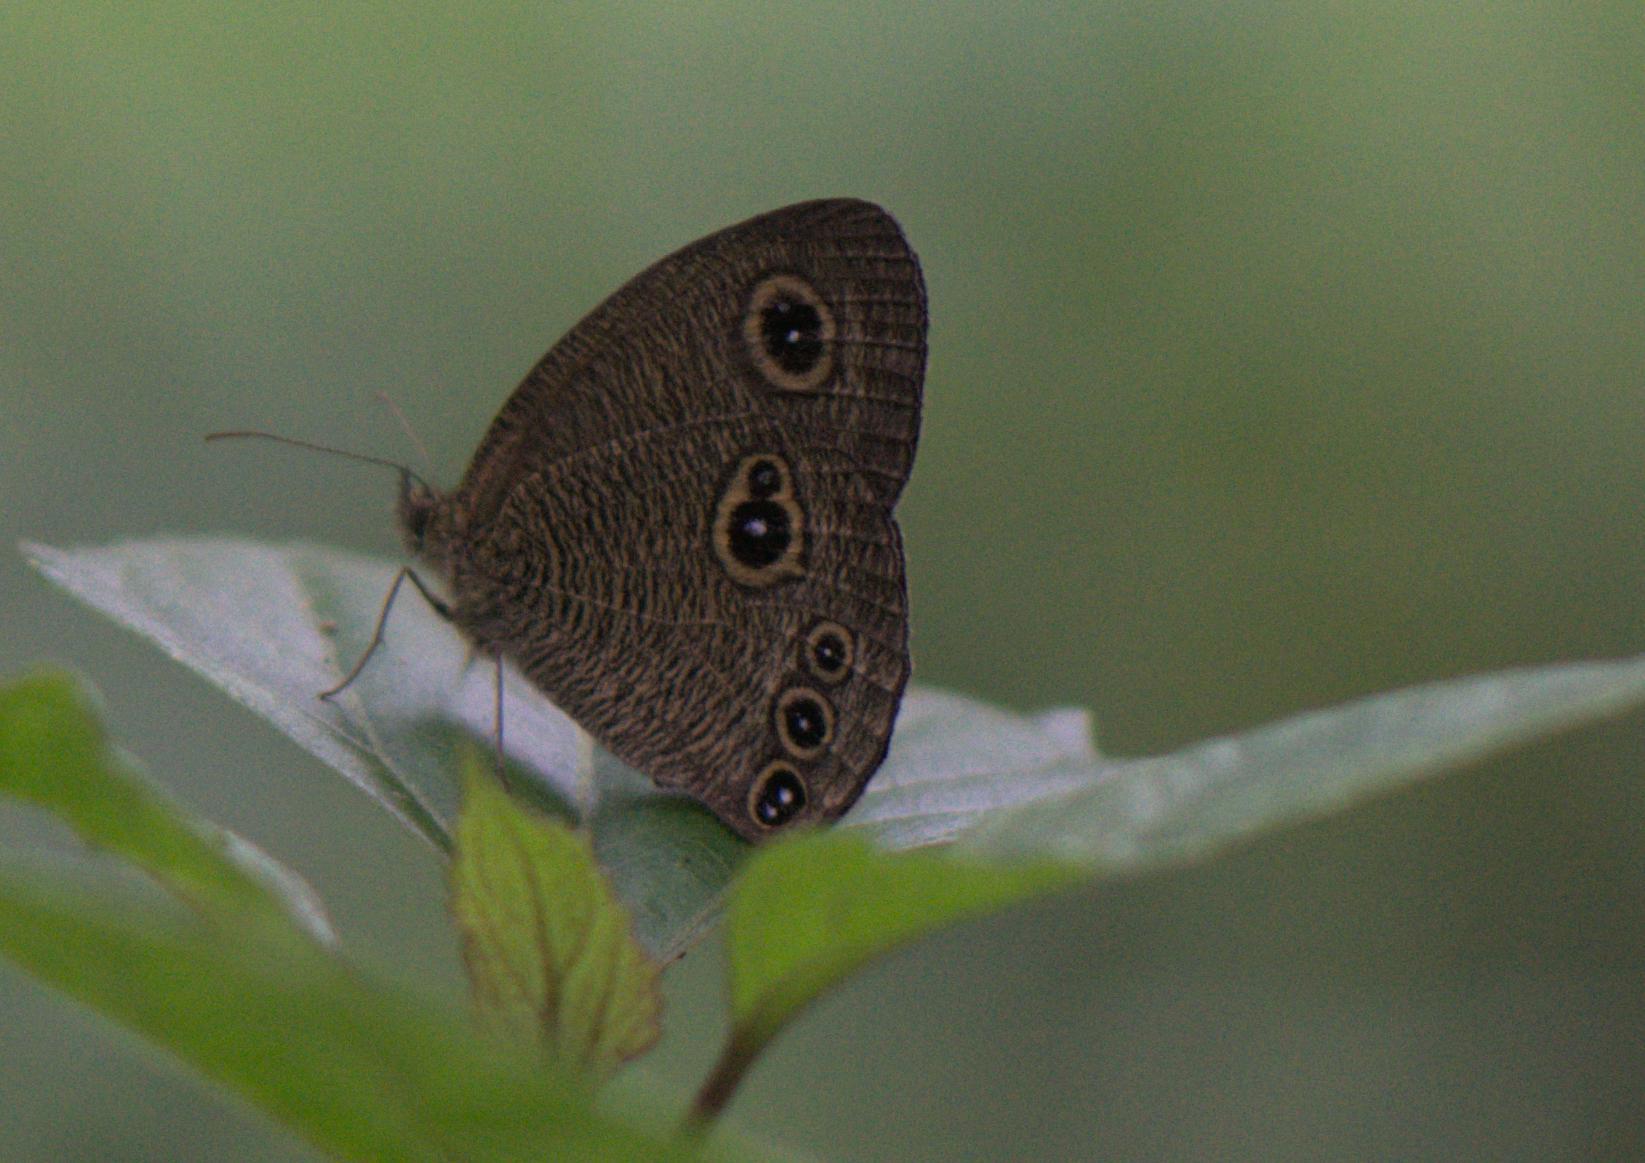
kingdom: Animalia
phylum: Arthropoda
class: Insecta
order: Lepidoptera
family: Nymphalidae
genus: Ypthima
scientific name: Ypthima nikaea
